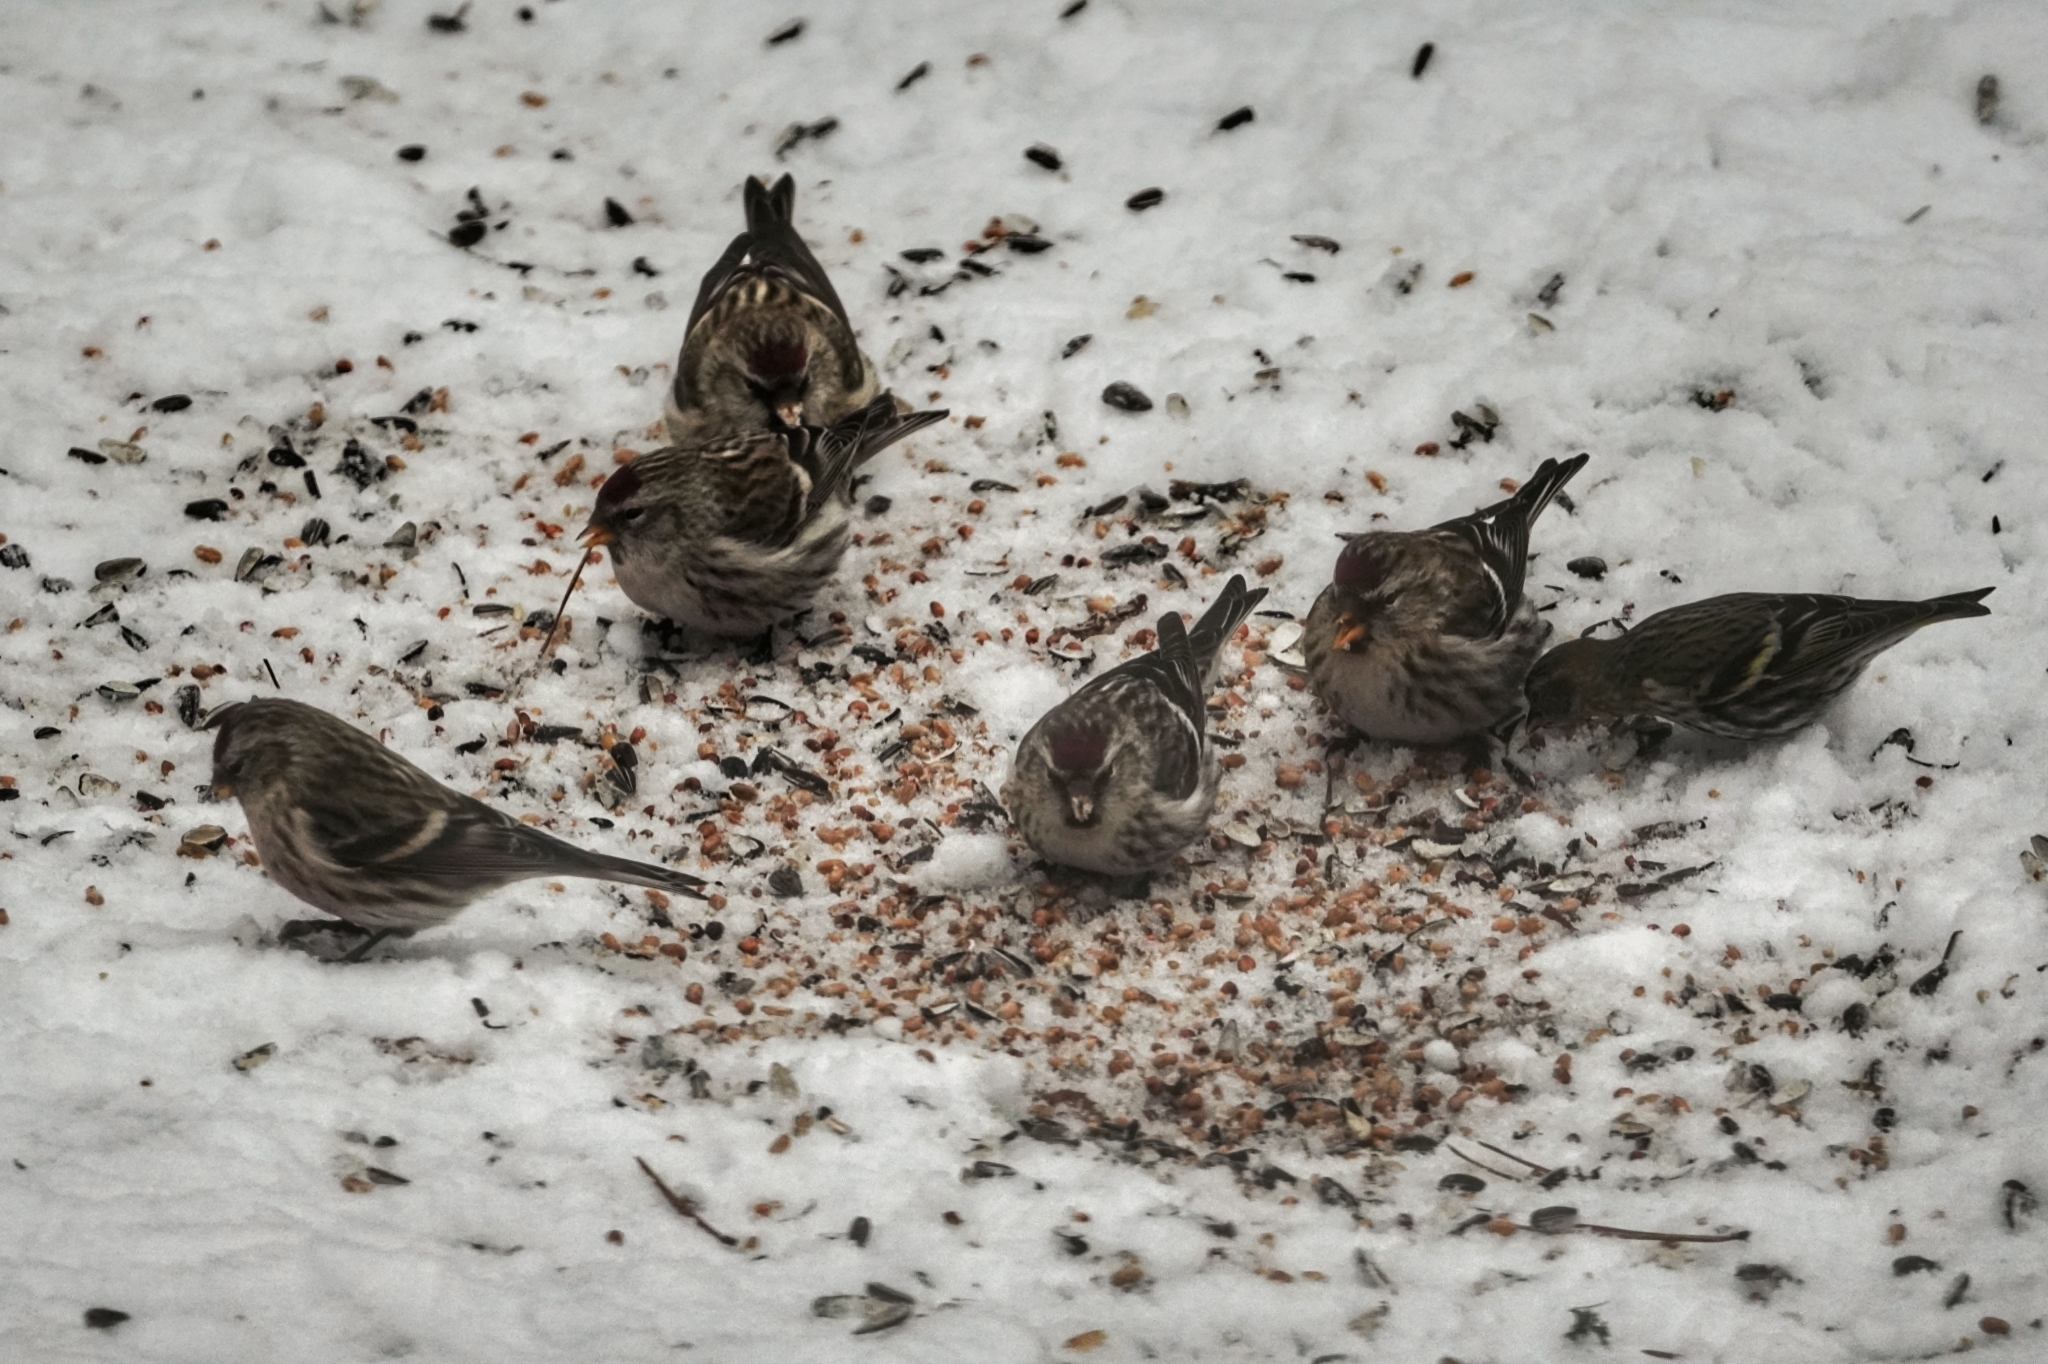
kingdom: Animalia
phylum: Chordata
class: Aves
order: Passeriformes
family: Fringillidae
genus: Acanthis
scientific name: Acanthis flammea
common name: Common redpoll
